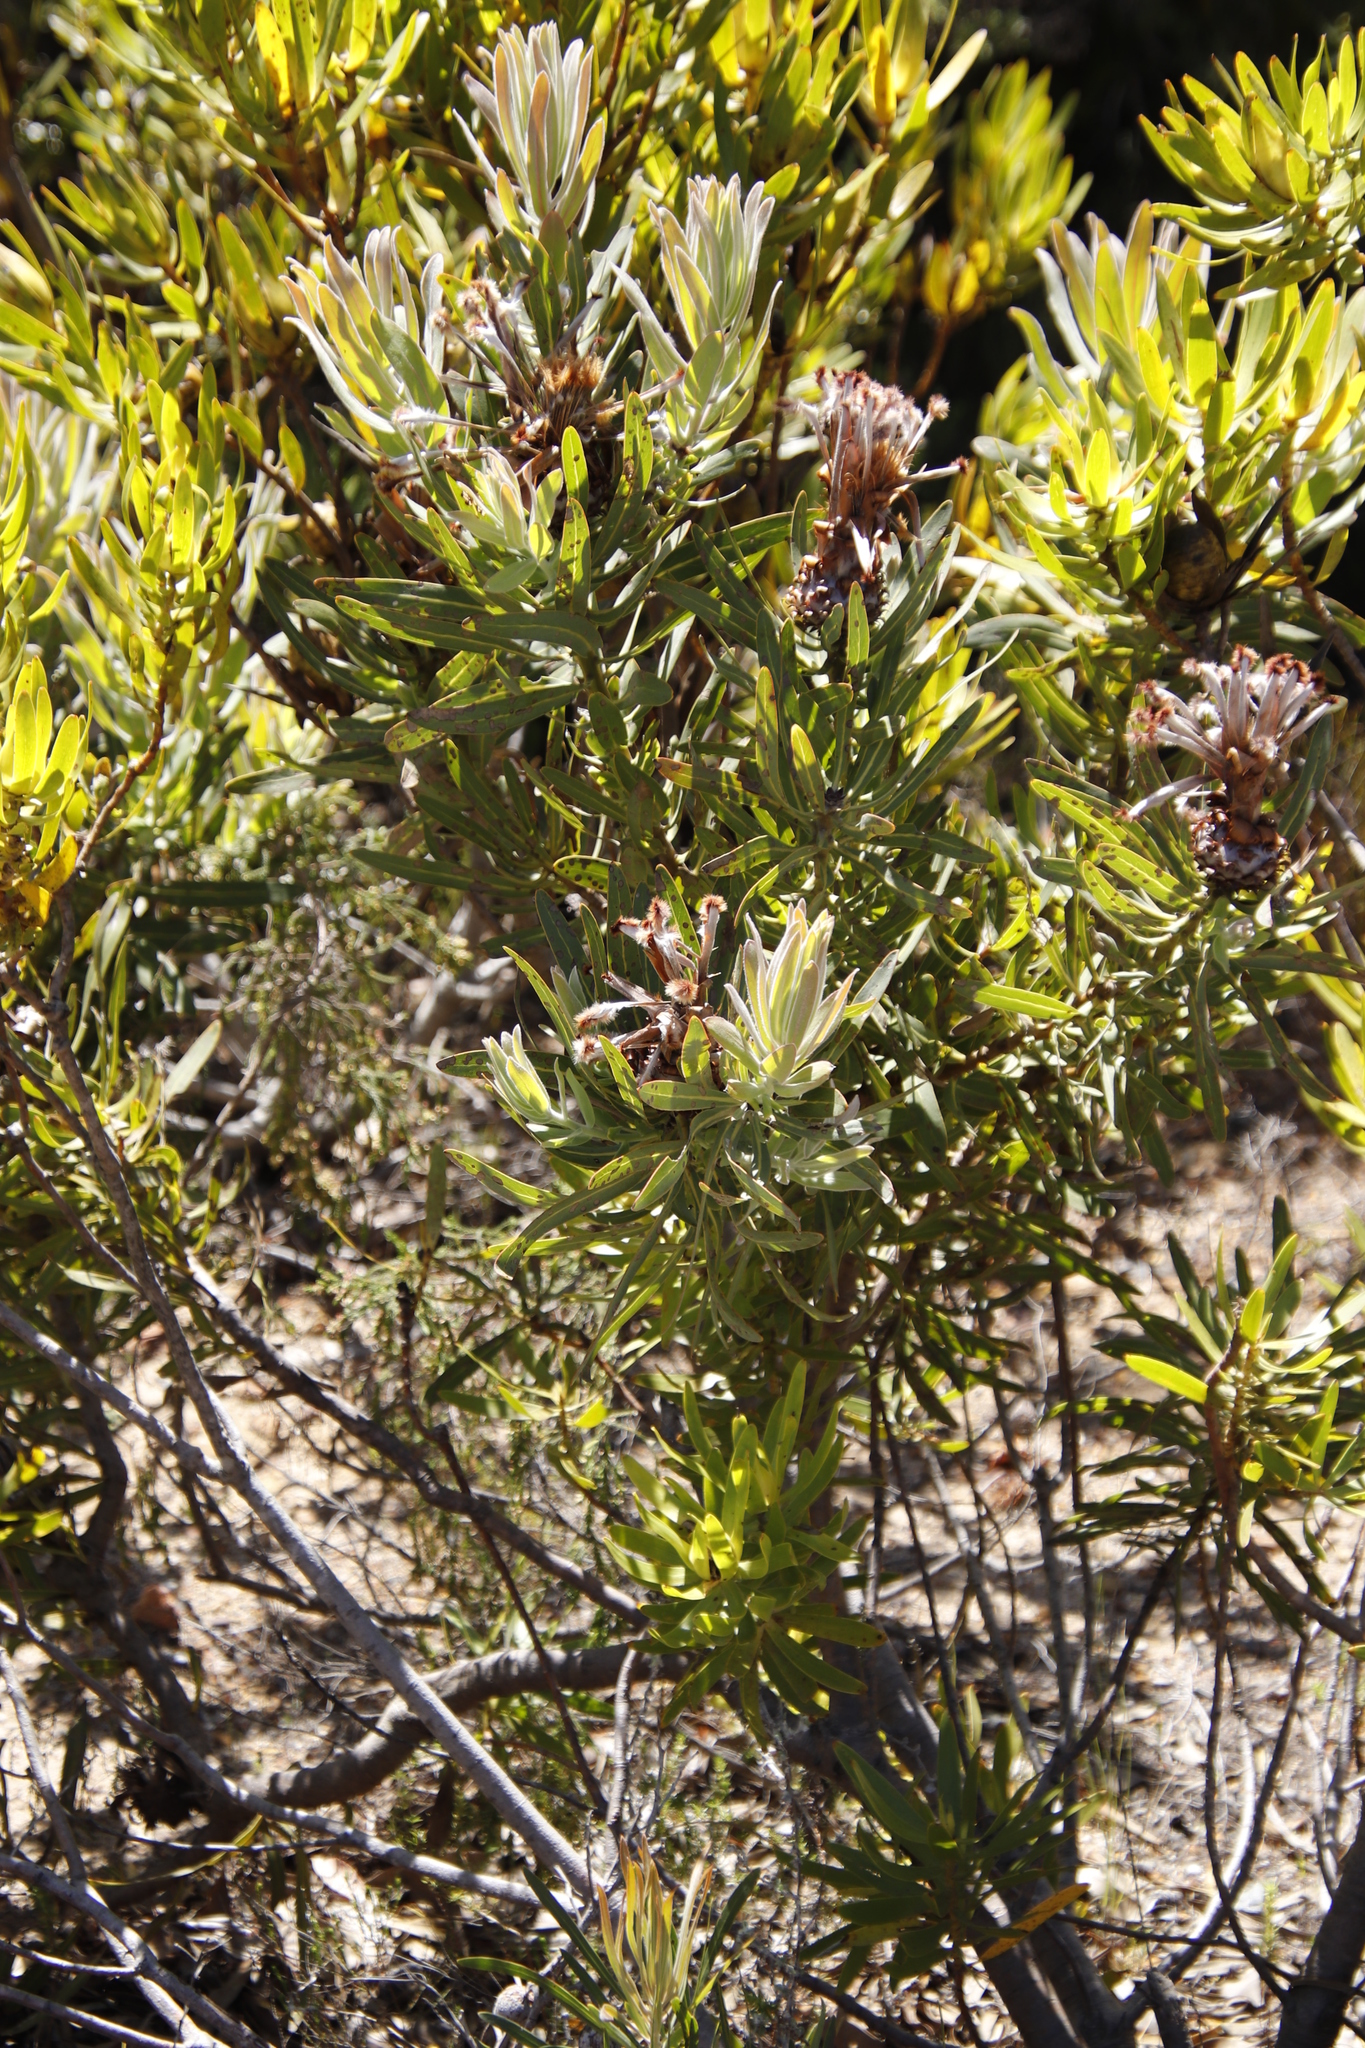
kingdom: Plantae
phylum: Tracheophyta
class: Magnoliopsida
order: Proteales
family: Proteaceae
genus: Protea
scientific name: Protea neriifolia
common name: Blue sugarbush
